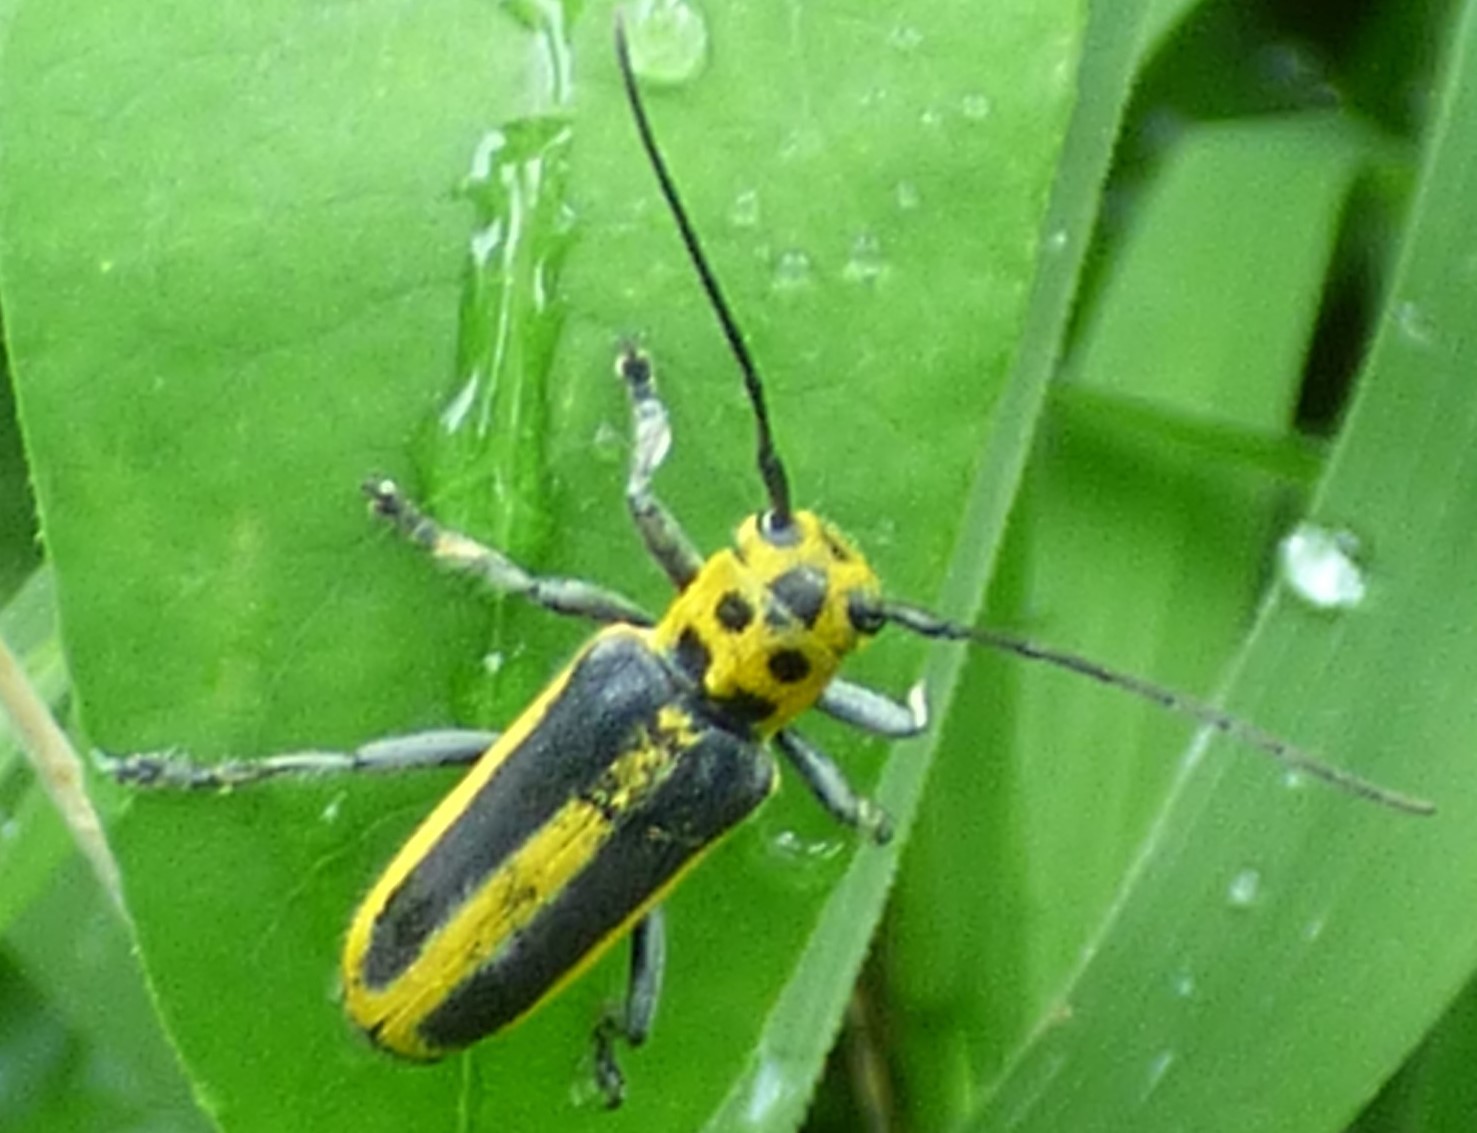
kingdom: Animalia
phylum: Arthropoda
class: Insecta
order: Coleoptera
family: Cerambycidae
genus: Saperda
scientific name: Saperda puncticollis
